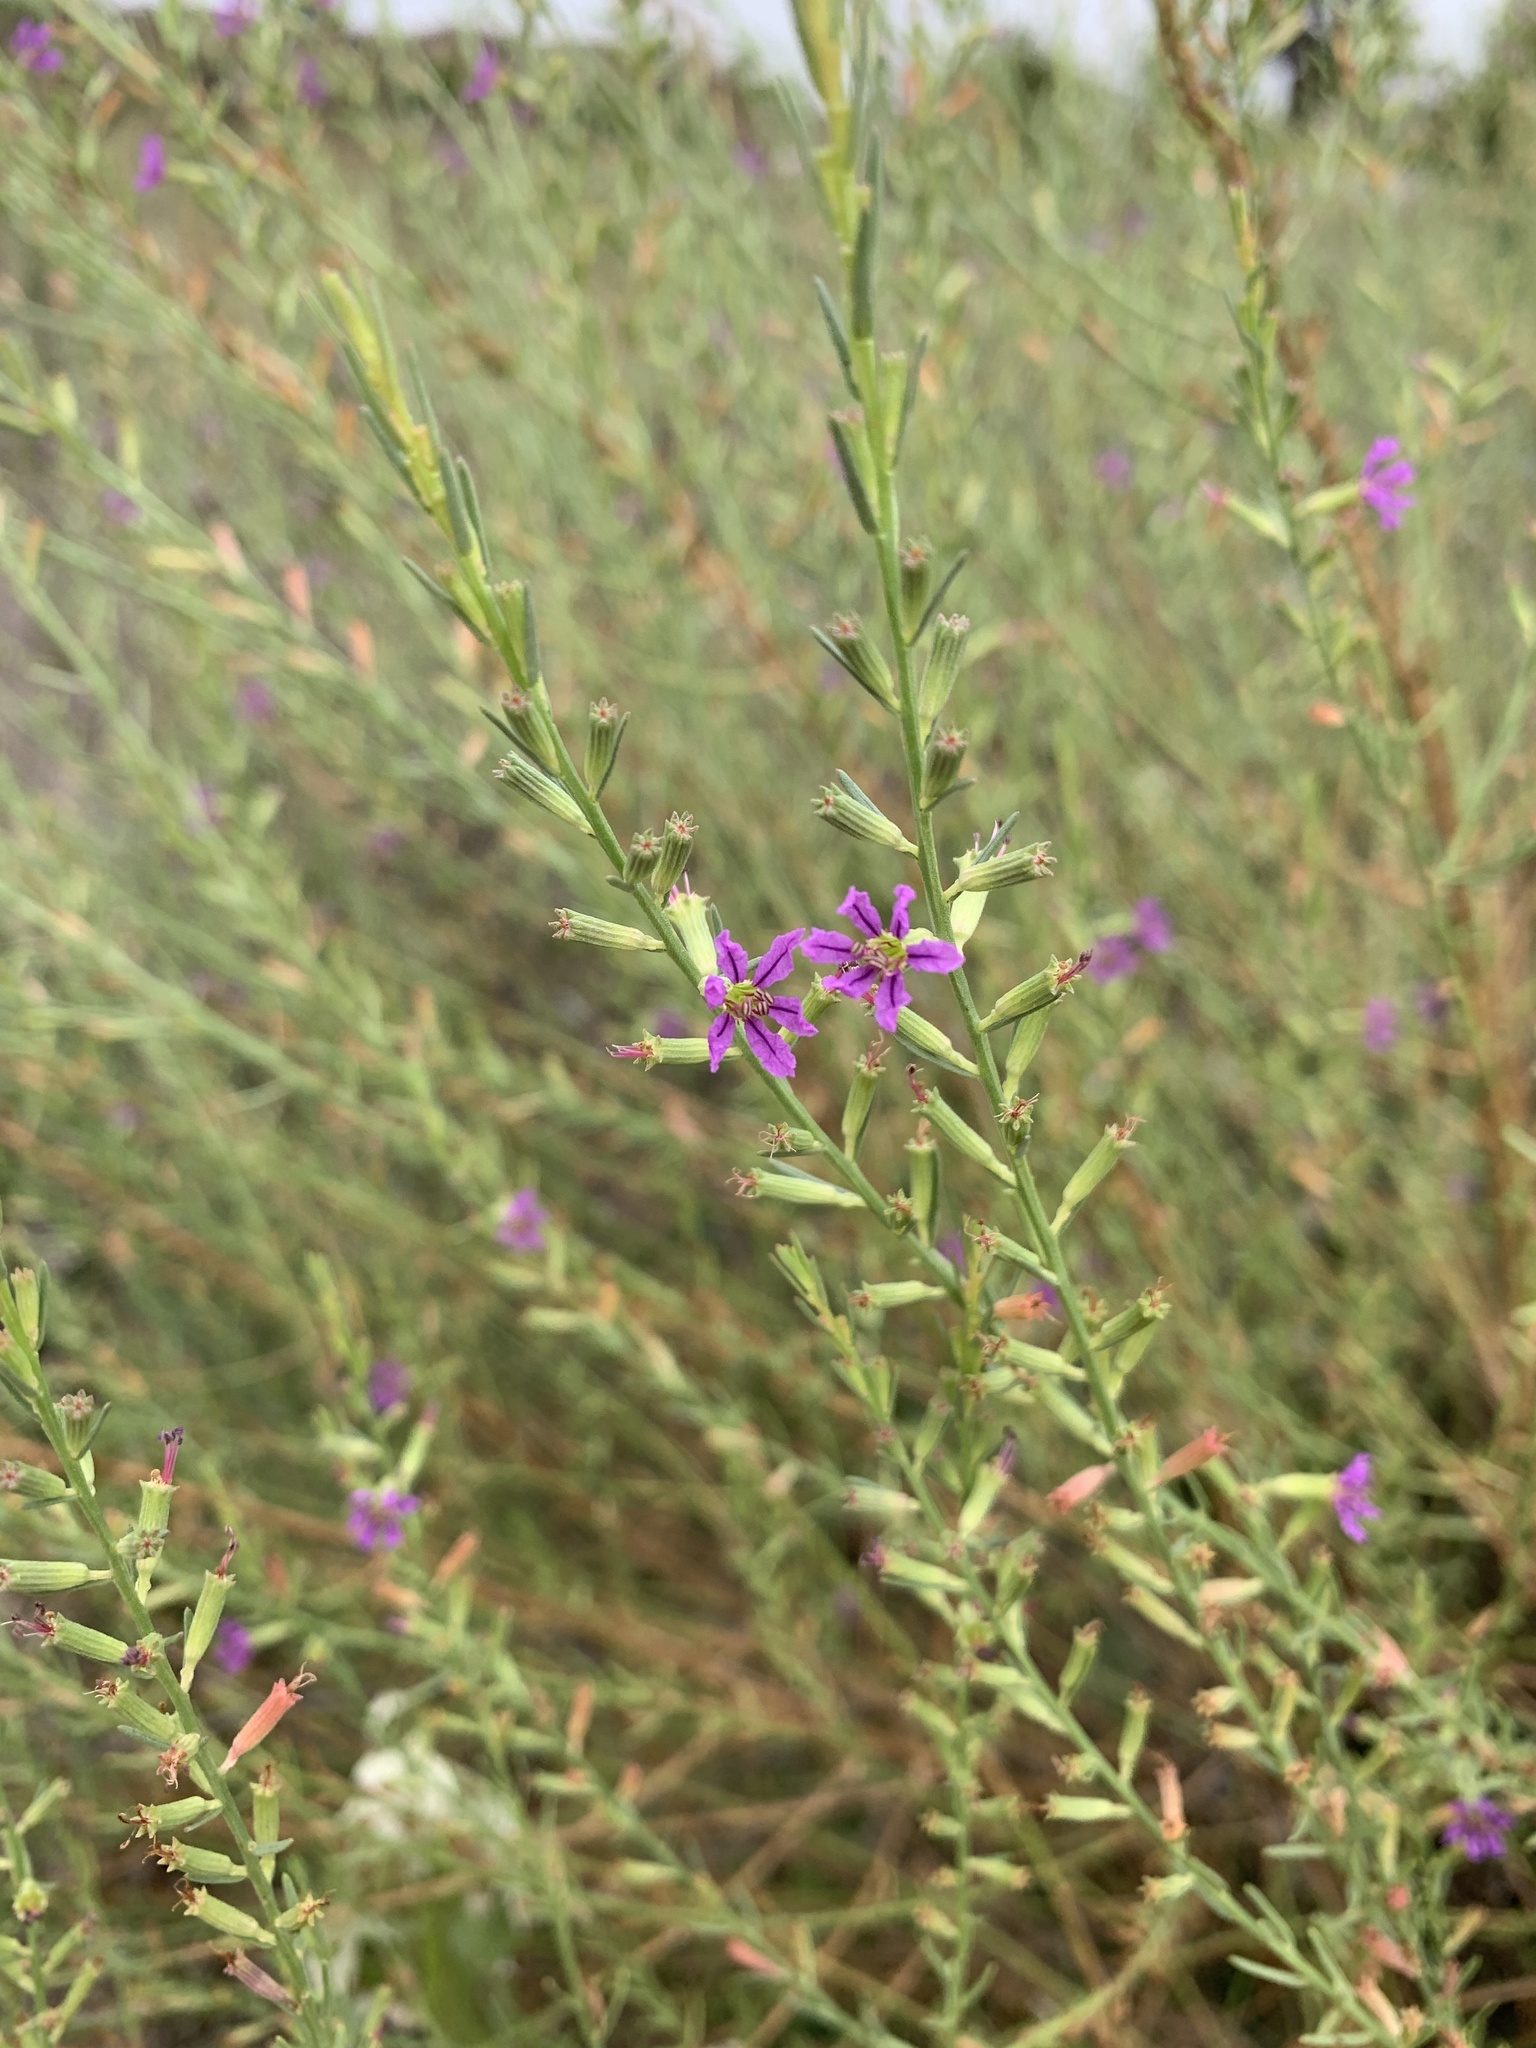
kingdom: Plantae
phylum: Tracheophyta
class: Magnoliopsida
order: Myrtales
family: Lythraceae
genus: Lythrum
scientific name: Lythrum californicum
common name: California loosestrife
